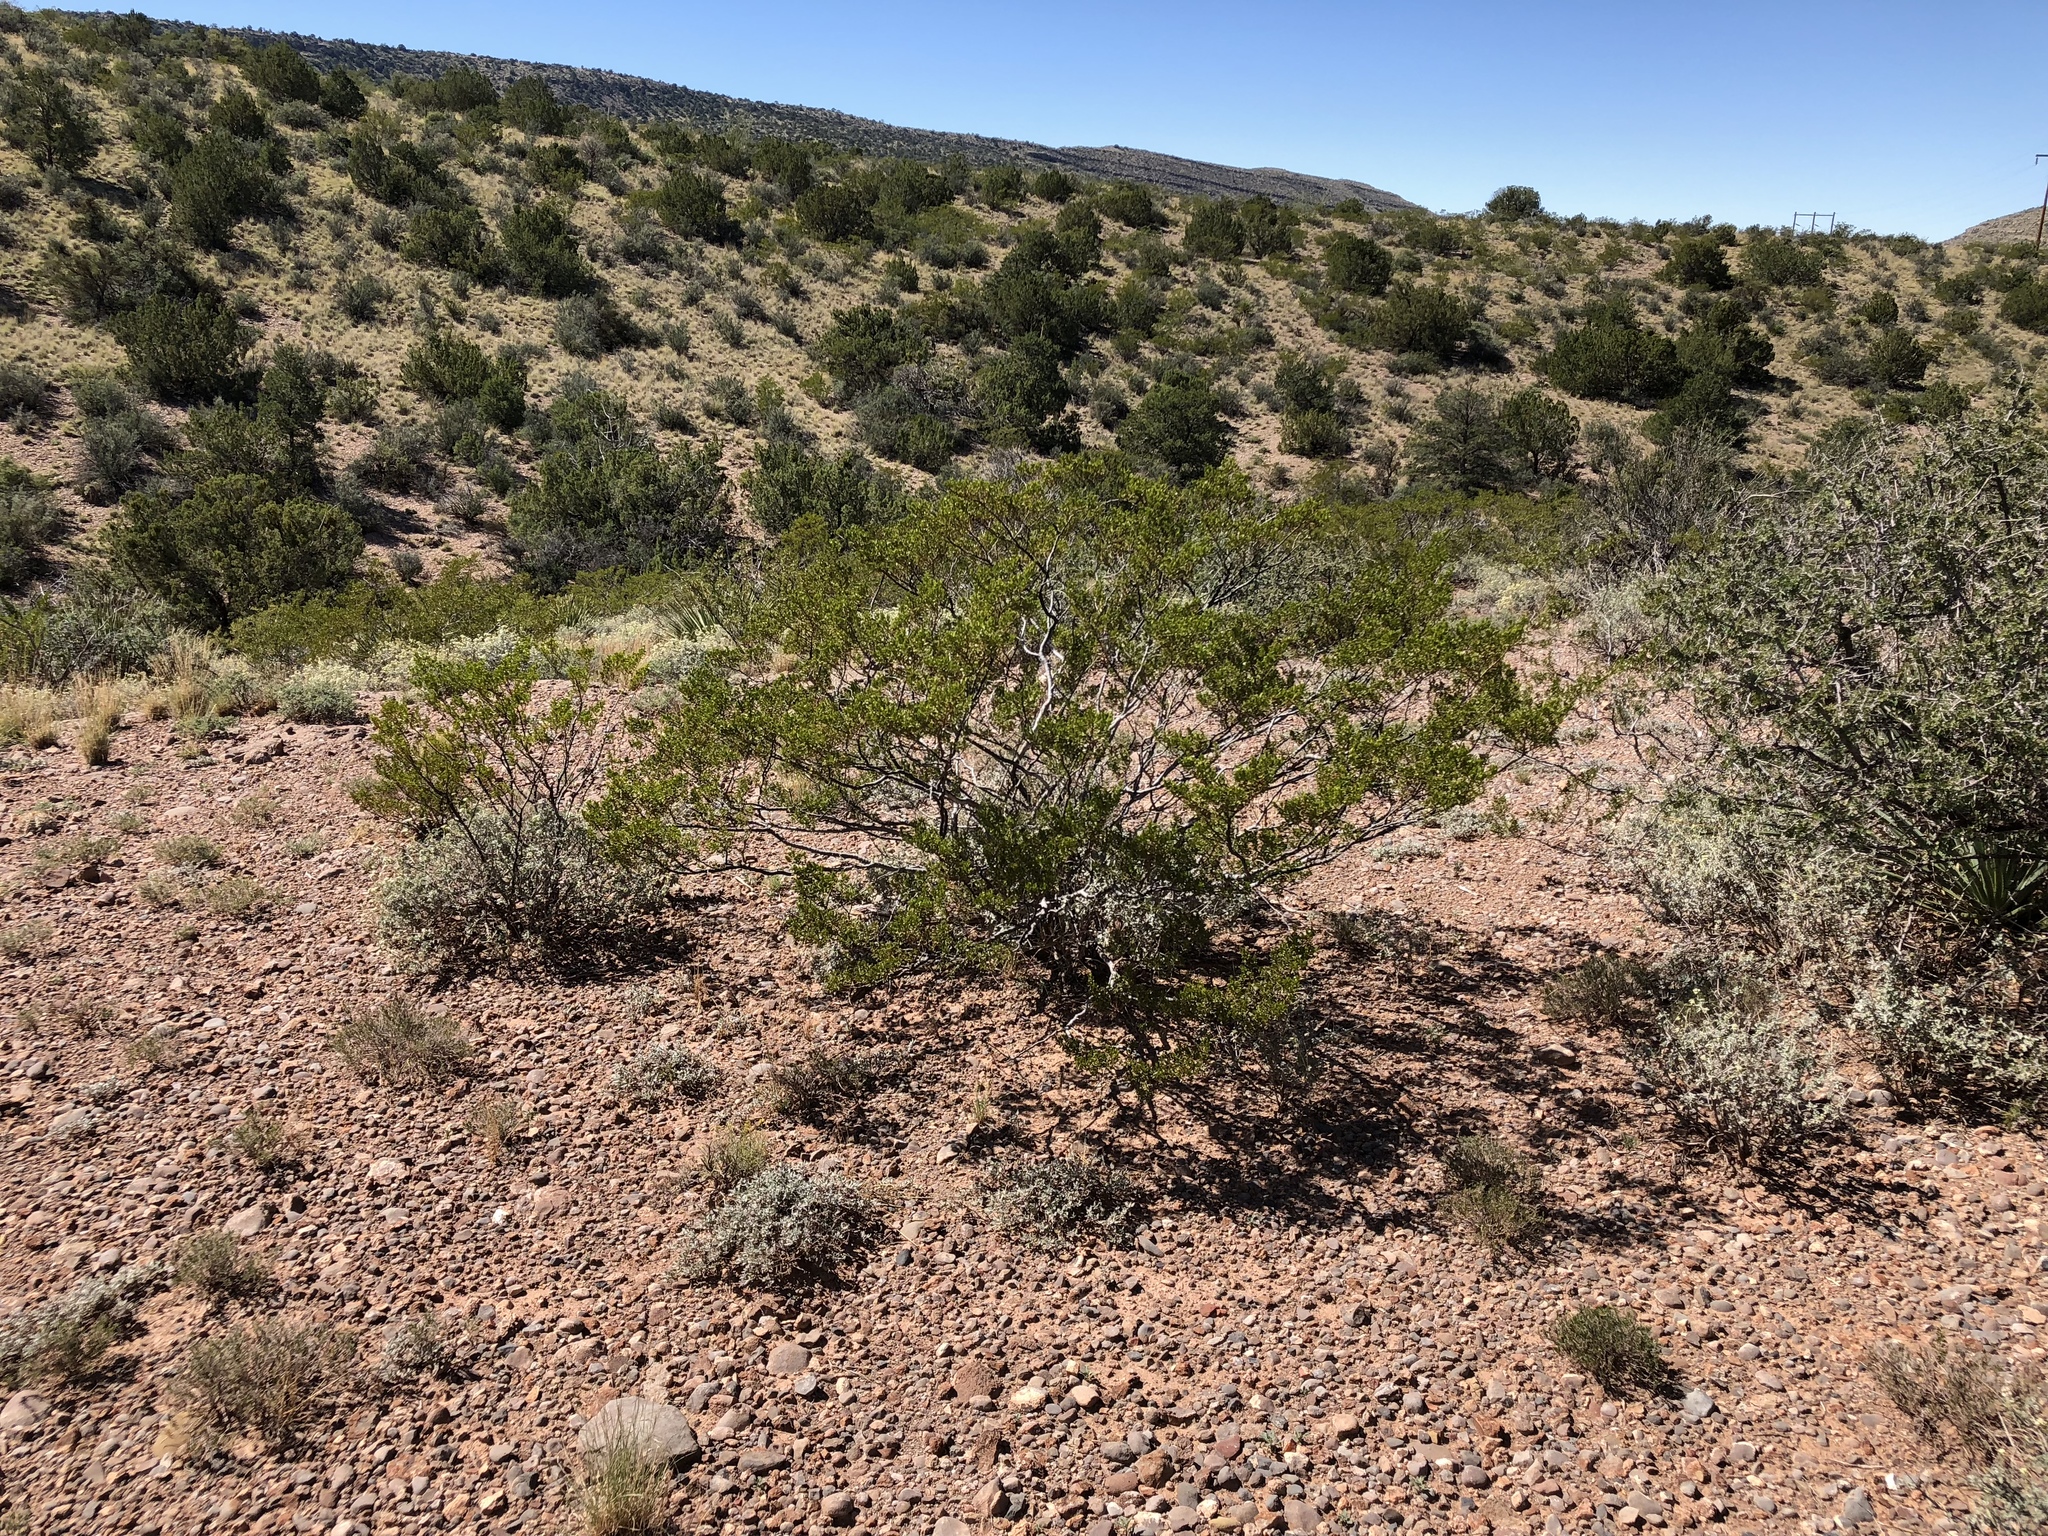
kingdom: Plantae
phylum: Tracheophyta
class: Magnoliopsida
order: Zygophyllales
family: Zygophyllaceae
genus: Larrea
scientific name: Larrea tridentata
